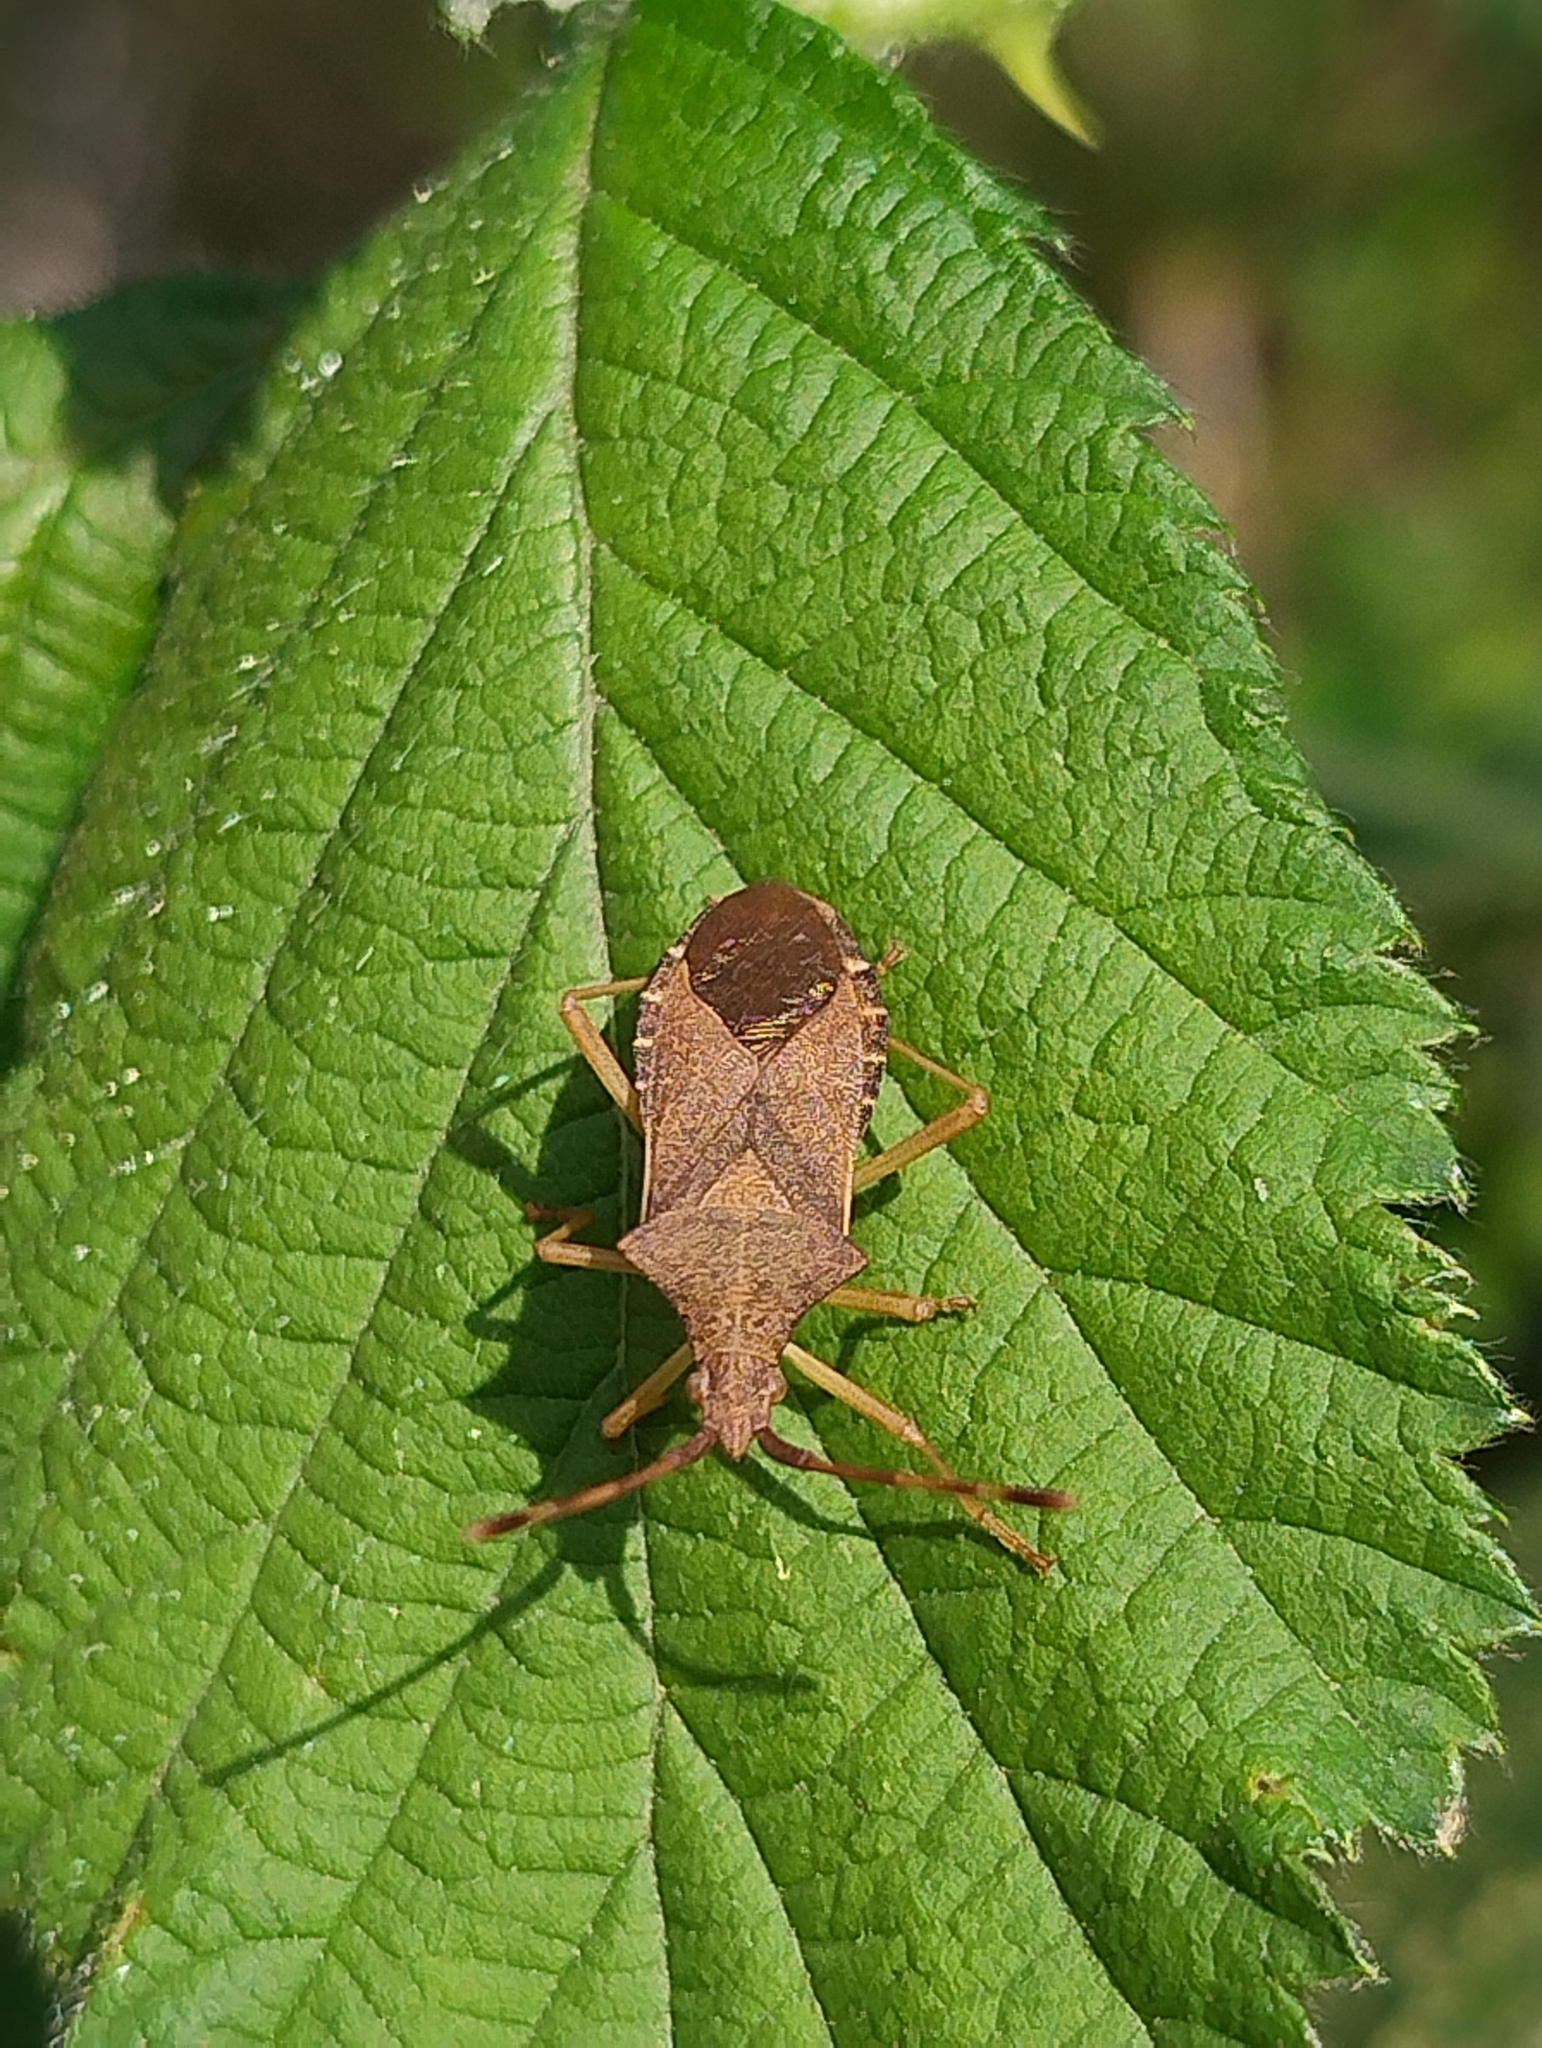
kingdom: Animalia
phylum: Arthropoda
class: Insecta
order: Hemiptera
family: Coreidae
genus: Gonocerus
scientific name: Gonocerus acuteangulatus
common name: Box bug
